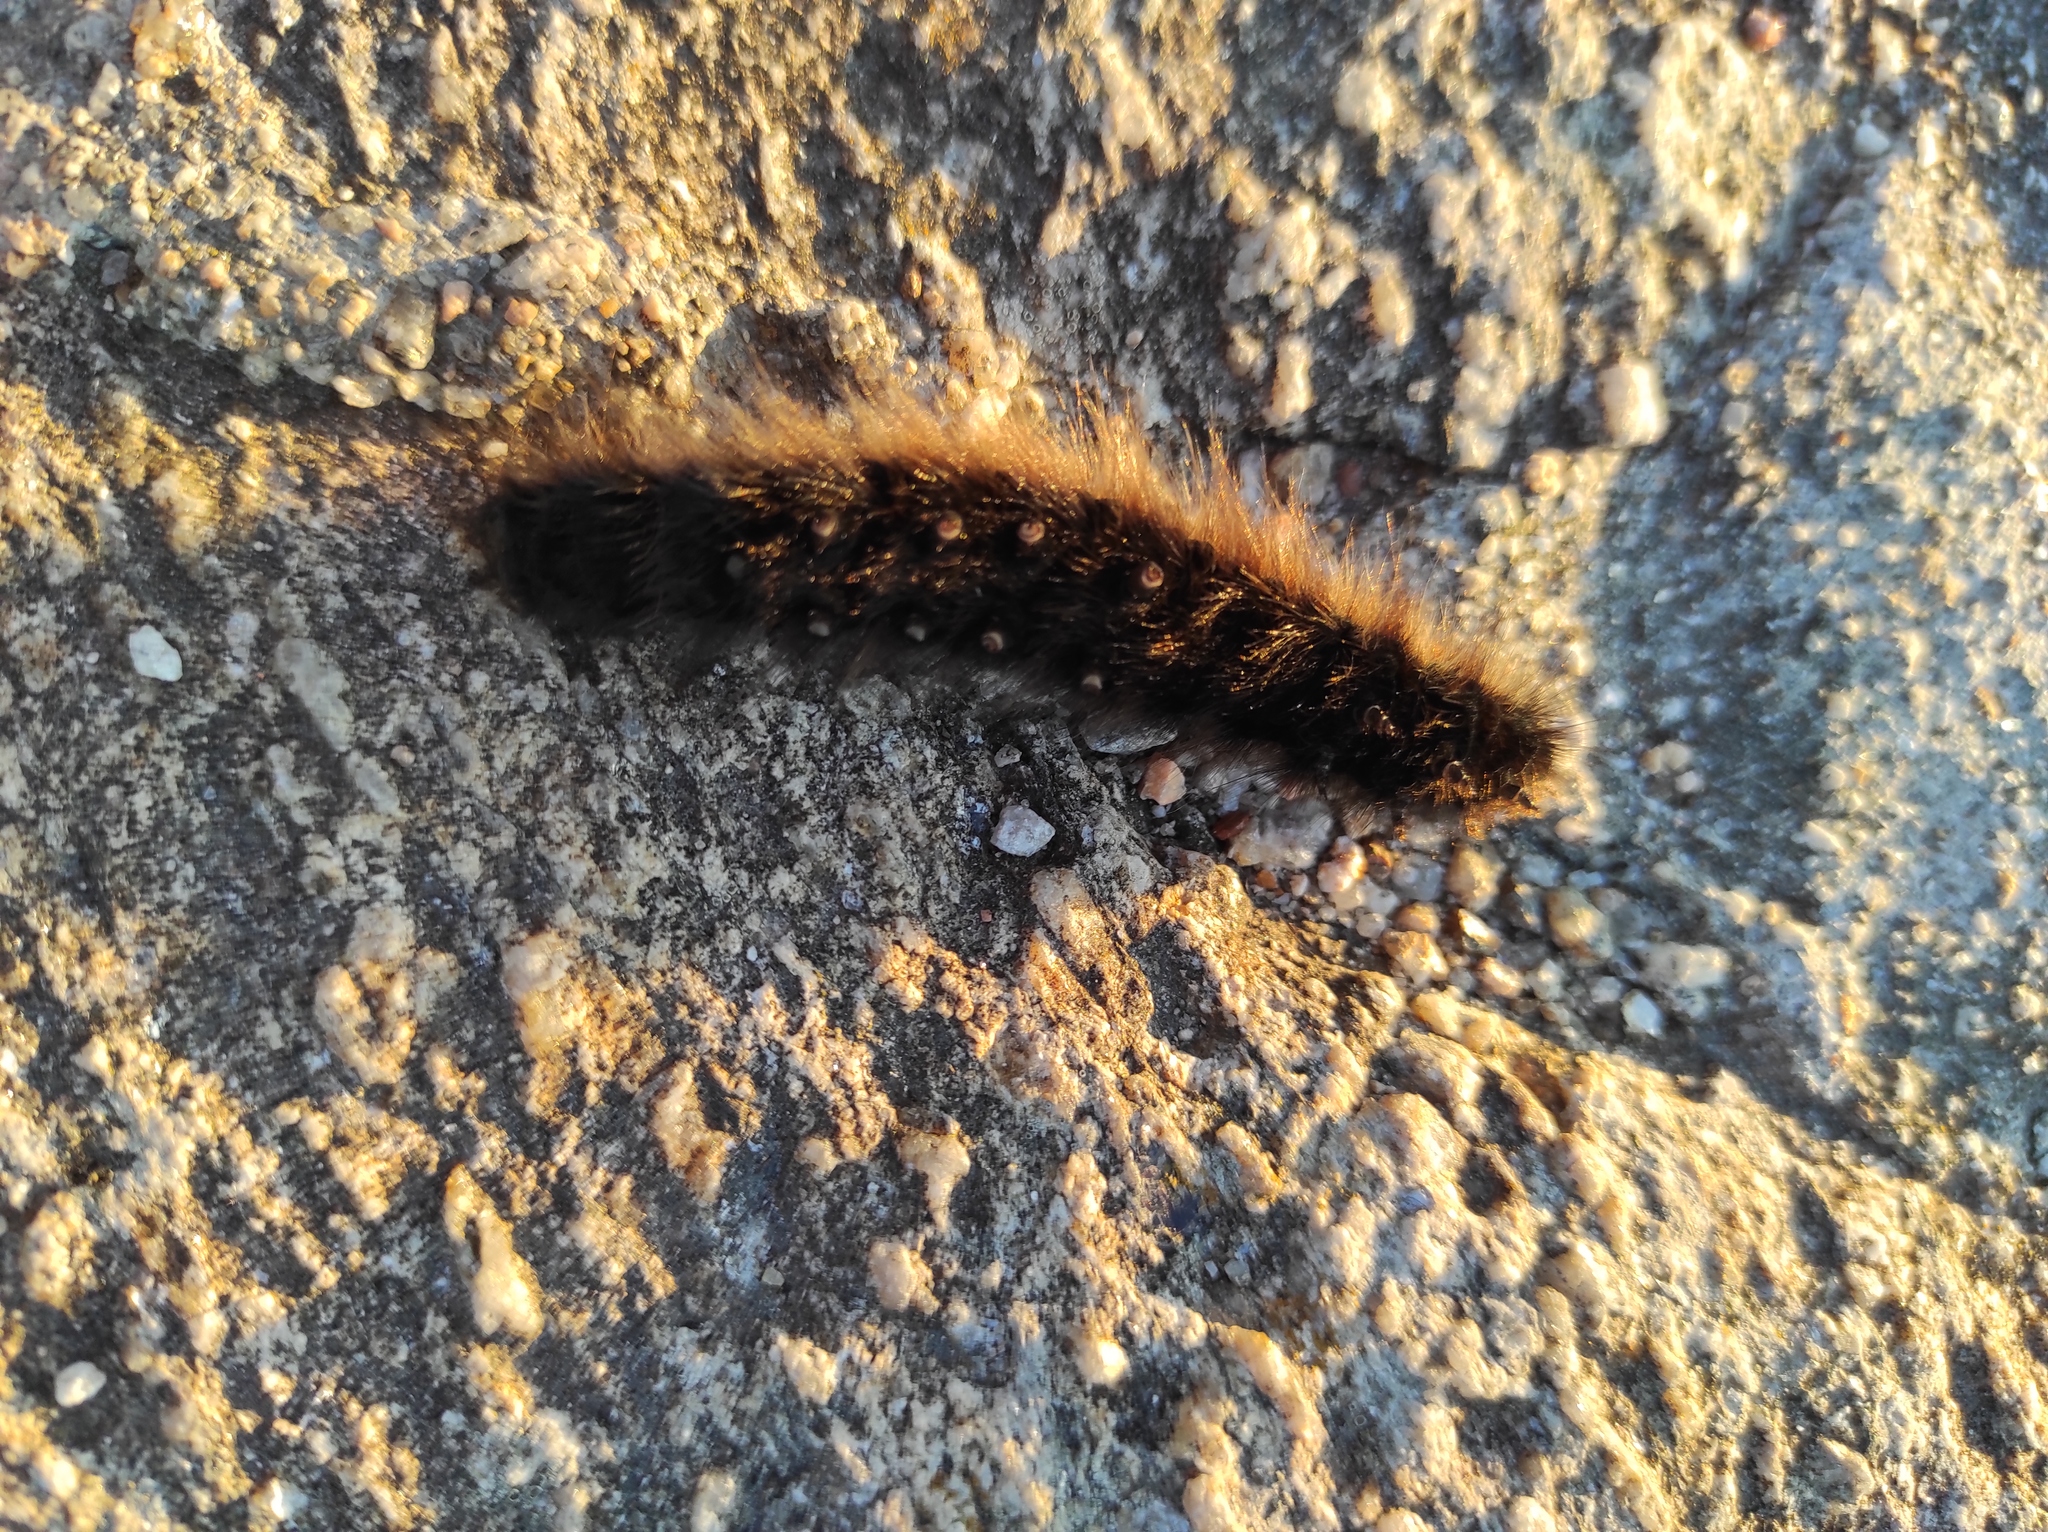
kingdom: Animalia
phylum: Arthropoda
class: Insecta
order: Lepidoptera
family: Lasiocampidae
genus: Macrothylacia
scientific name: Macrothylacia rubi
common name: Fox moth
